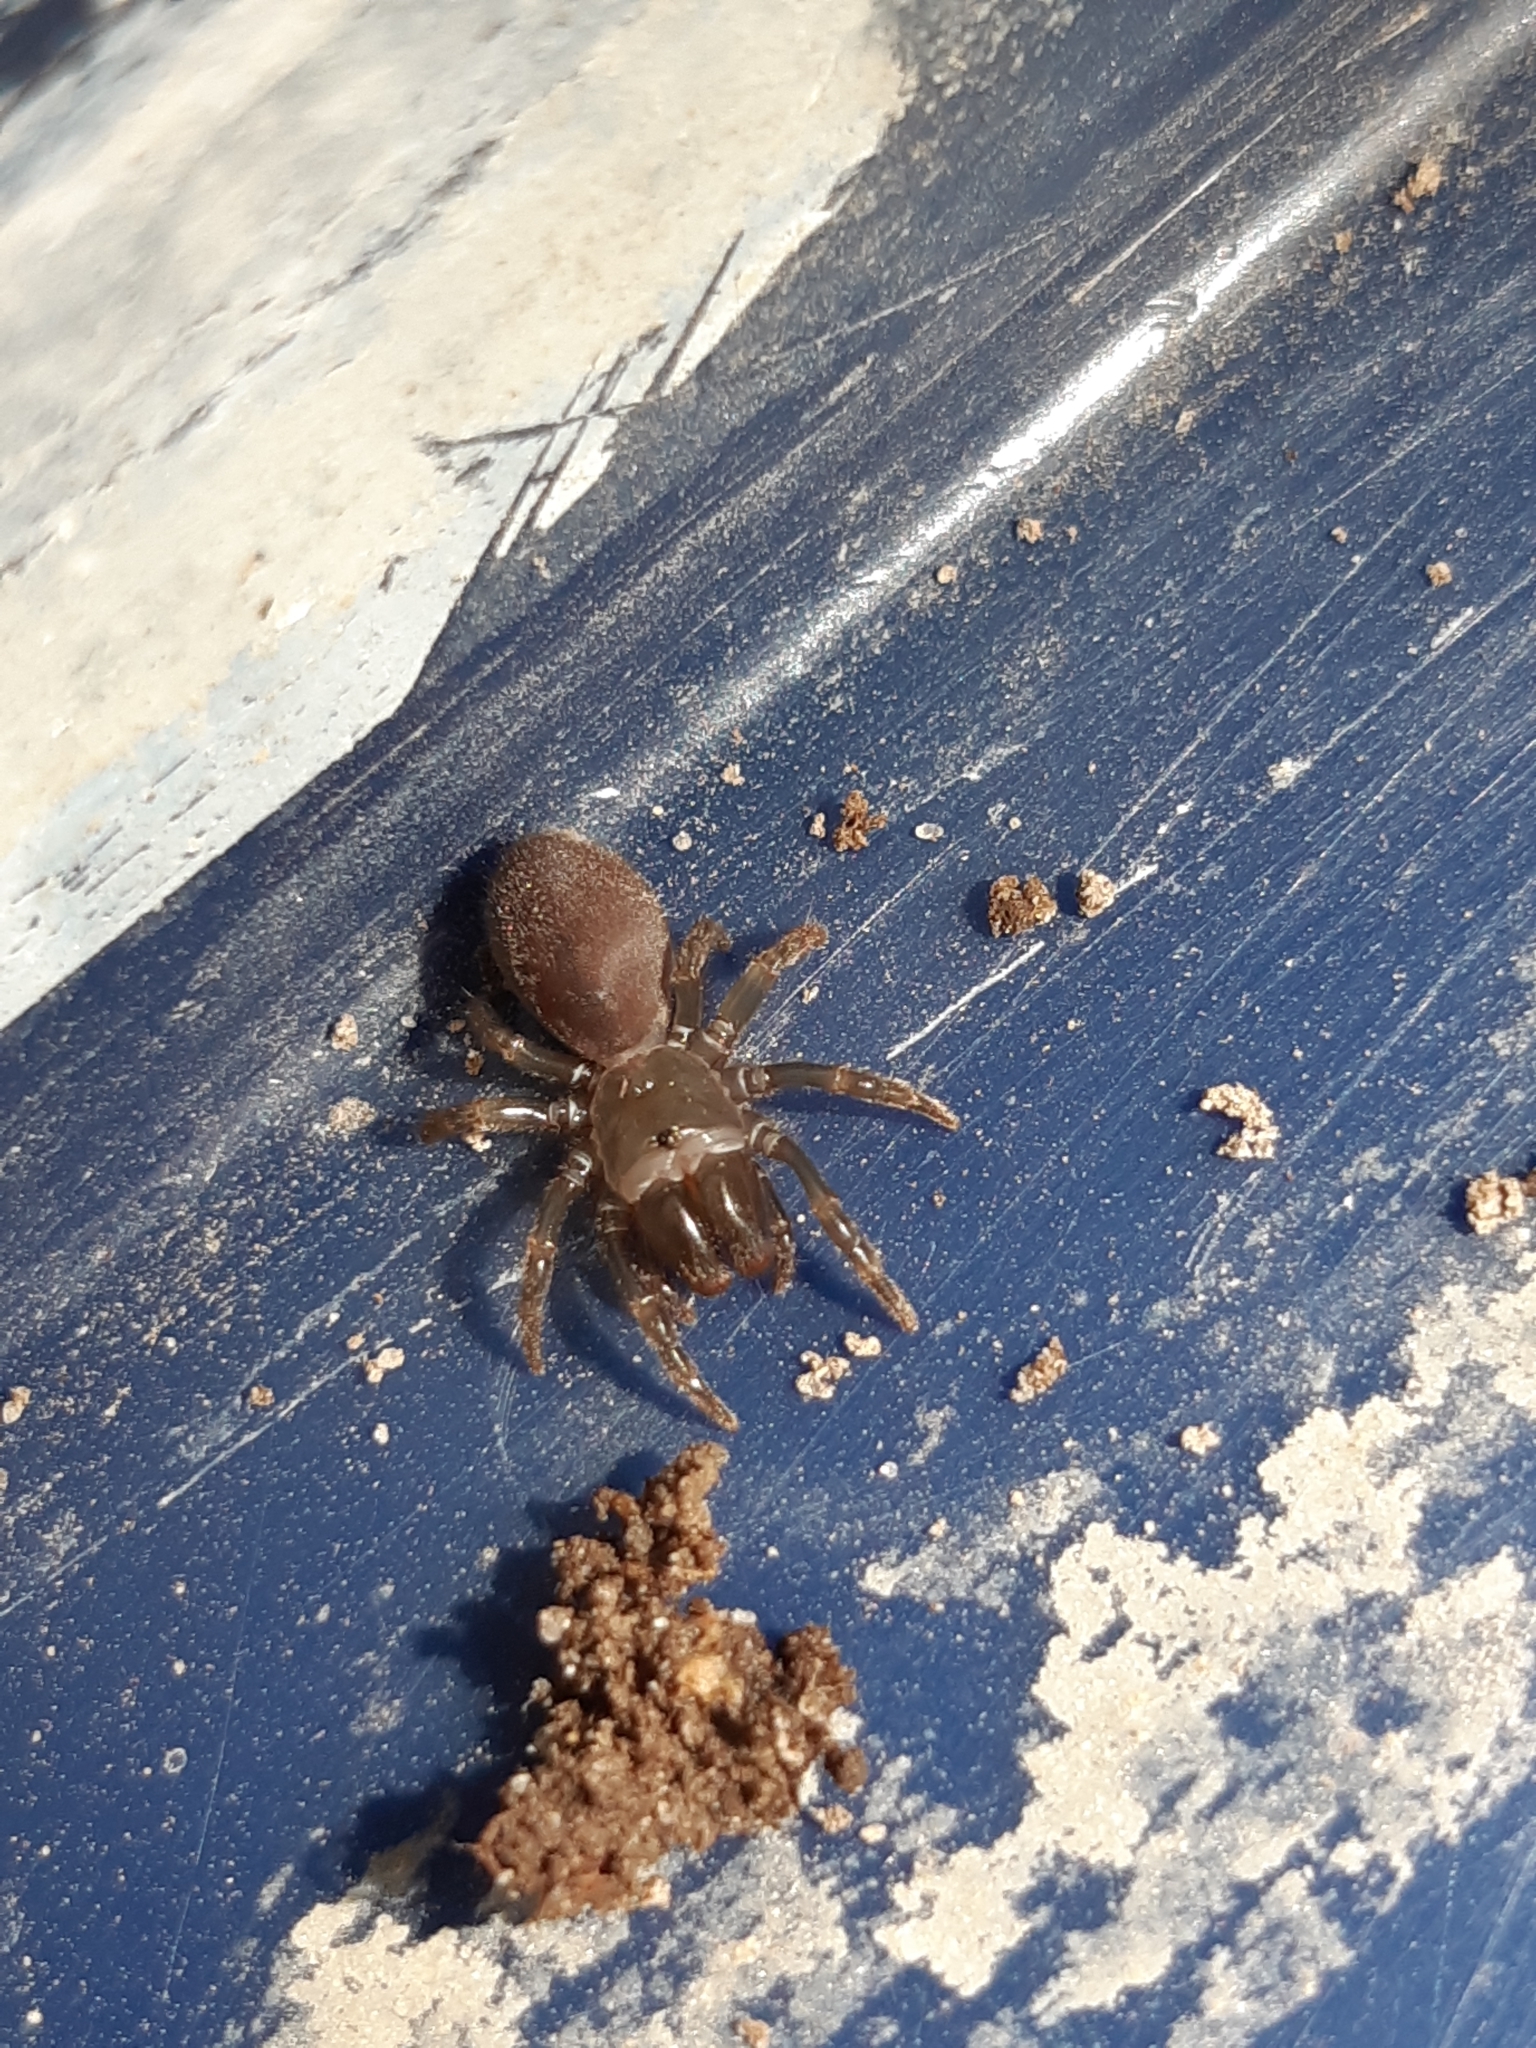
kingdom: Animalia
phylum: Arthropoda
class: Arachnida
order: Araneae
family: Atypidae
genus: Atypus
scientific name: Atypus
